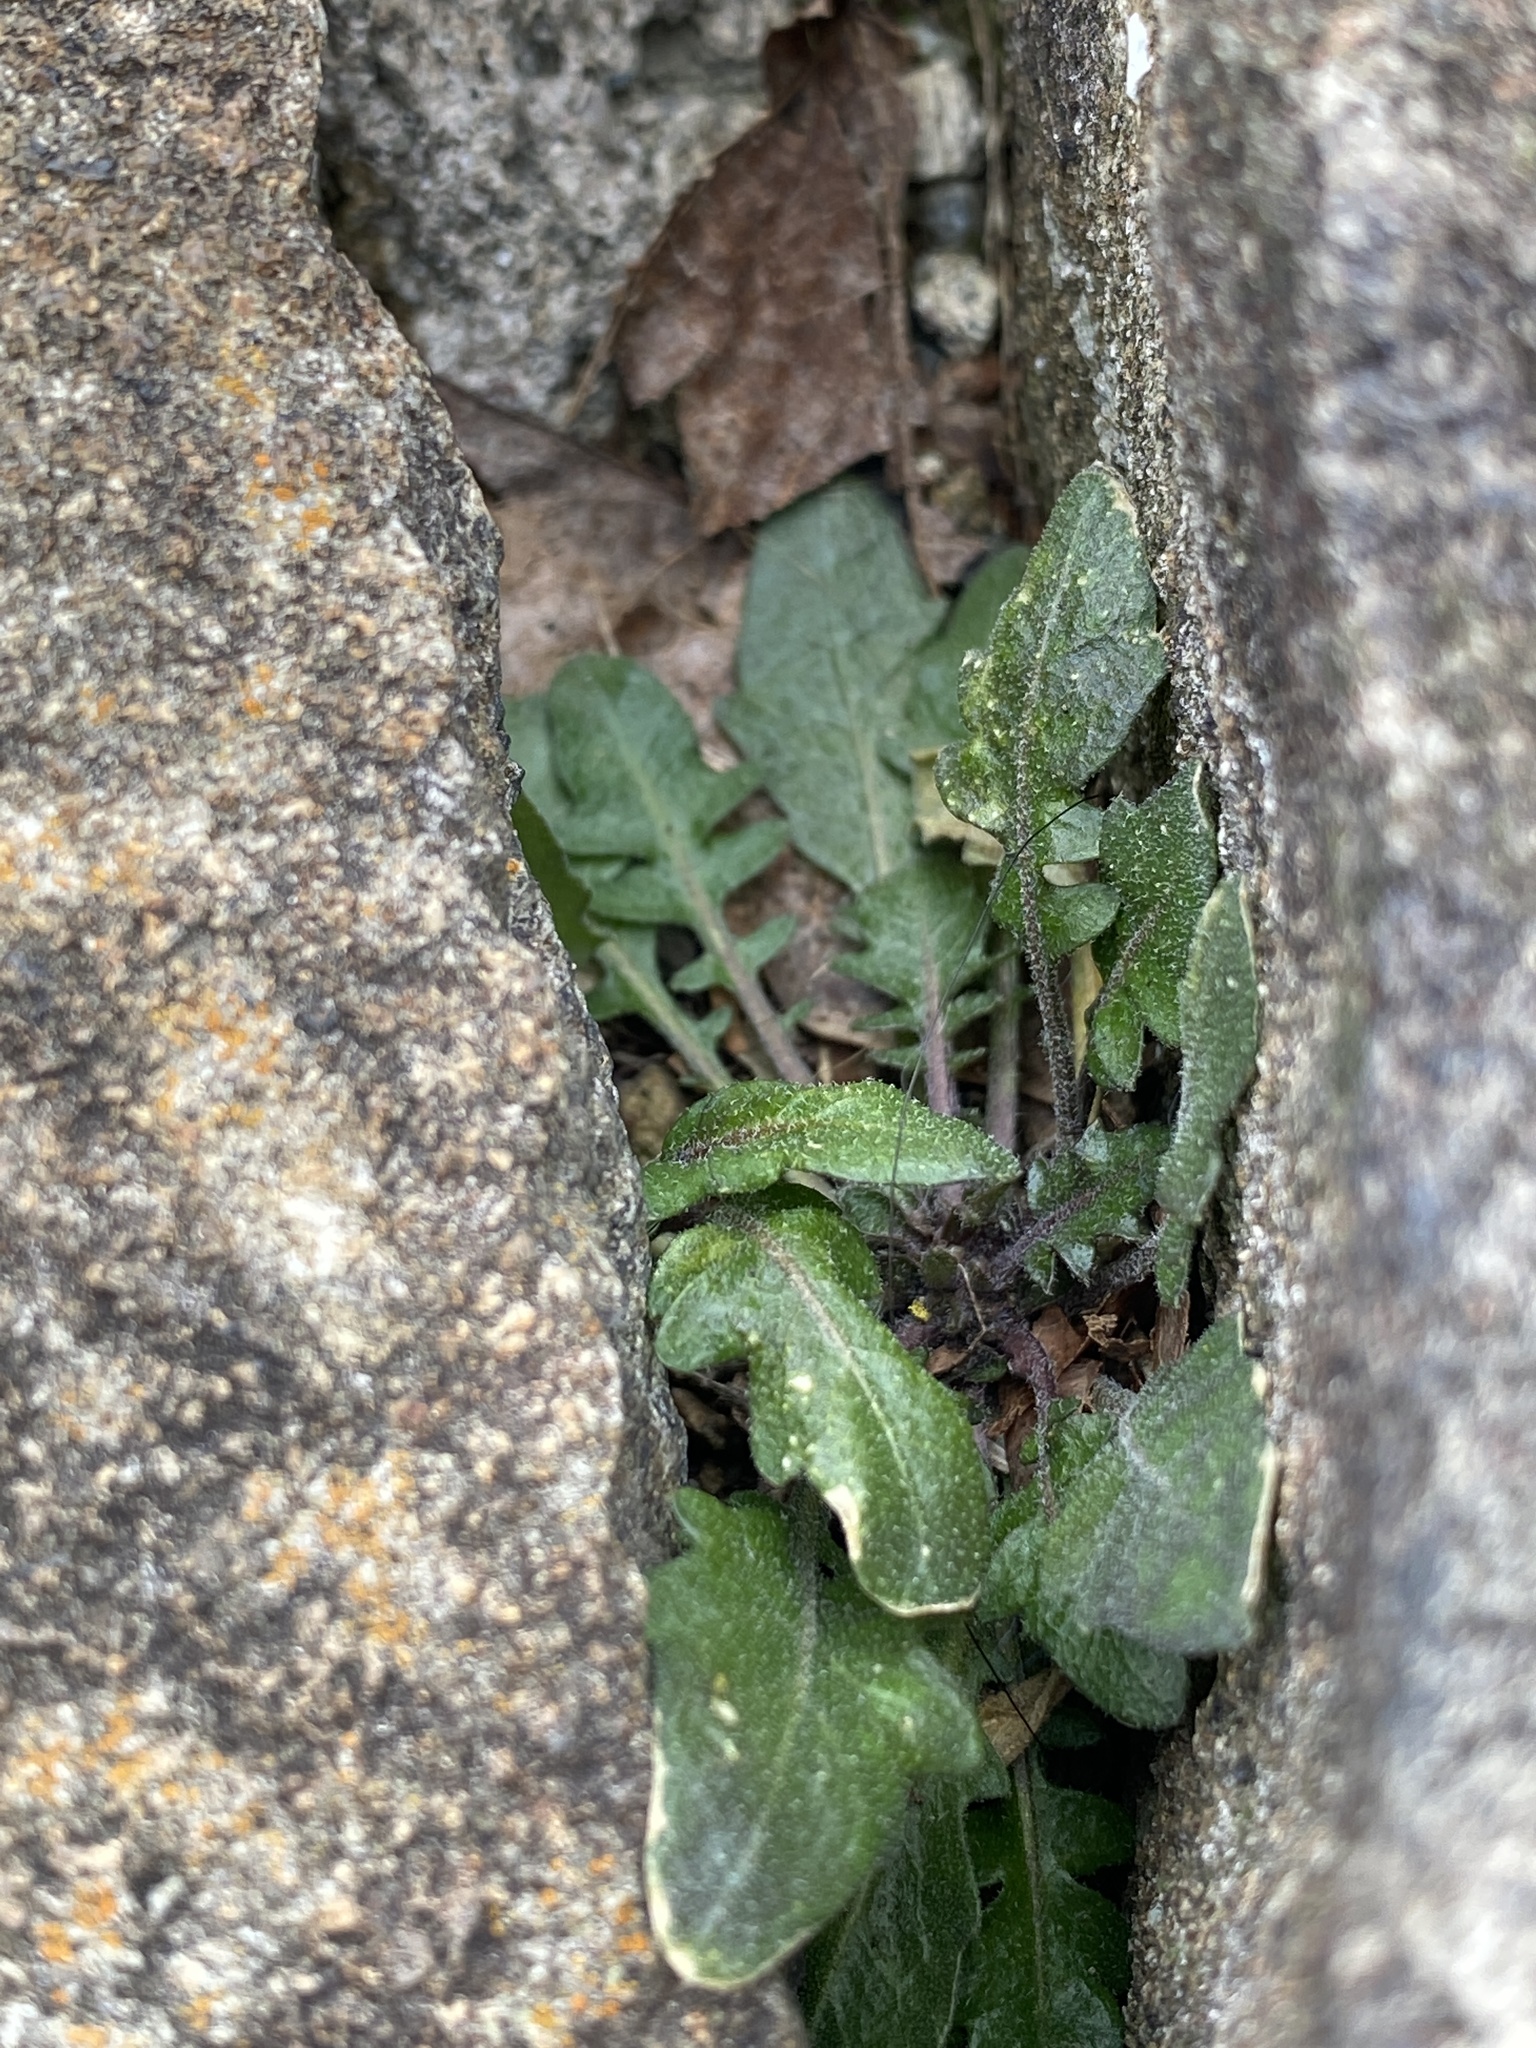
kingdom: Plantae
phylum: Tracheophyta
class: Magnoliopsida
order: Brassicales
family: Brassicaceae
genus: Arabidopsis
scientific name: Arabidopsis lyrata
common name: Lyrate rockcress
